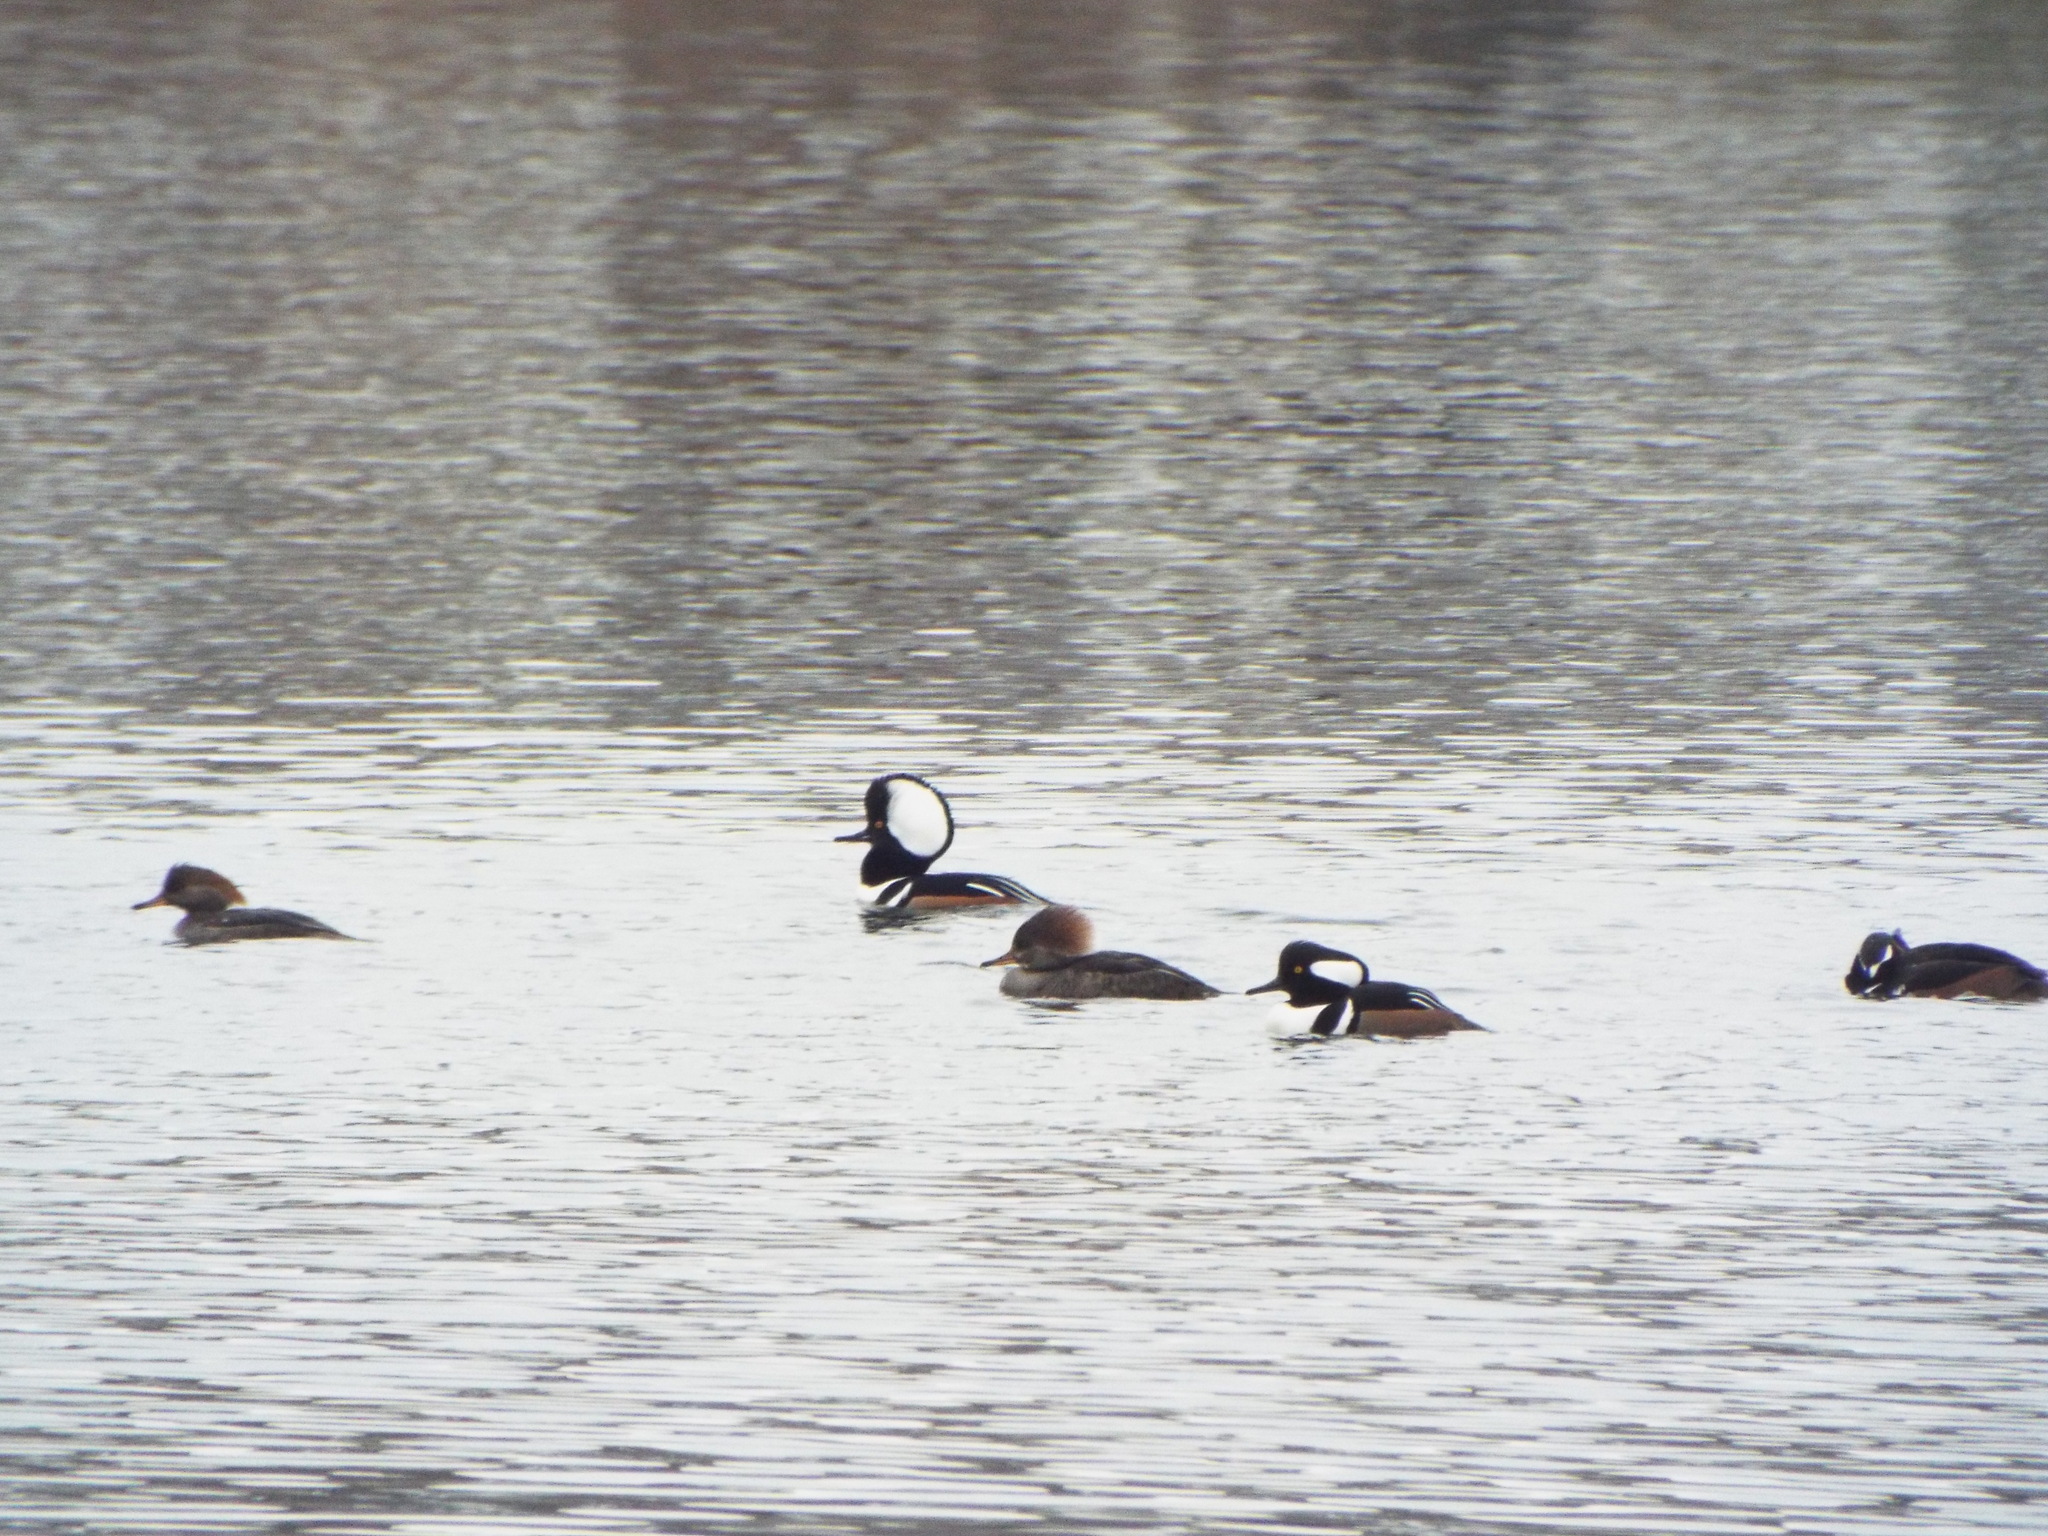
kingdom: Animalia
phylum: Chordata
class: Aves
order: Anseriformes
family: Anatidae
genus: Lophodytes
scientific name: Lophodytes cucullatus
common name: Hooded merganser
